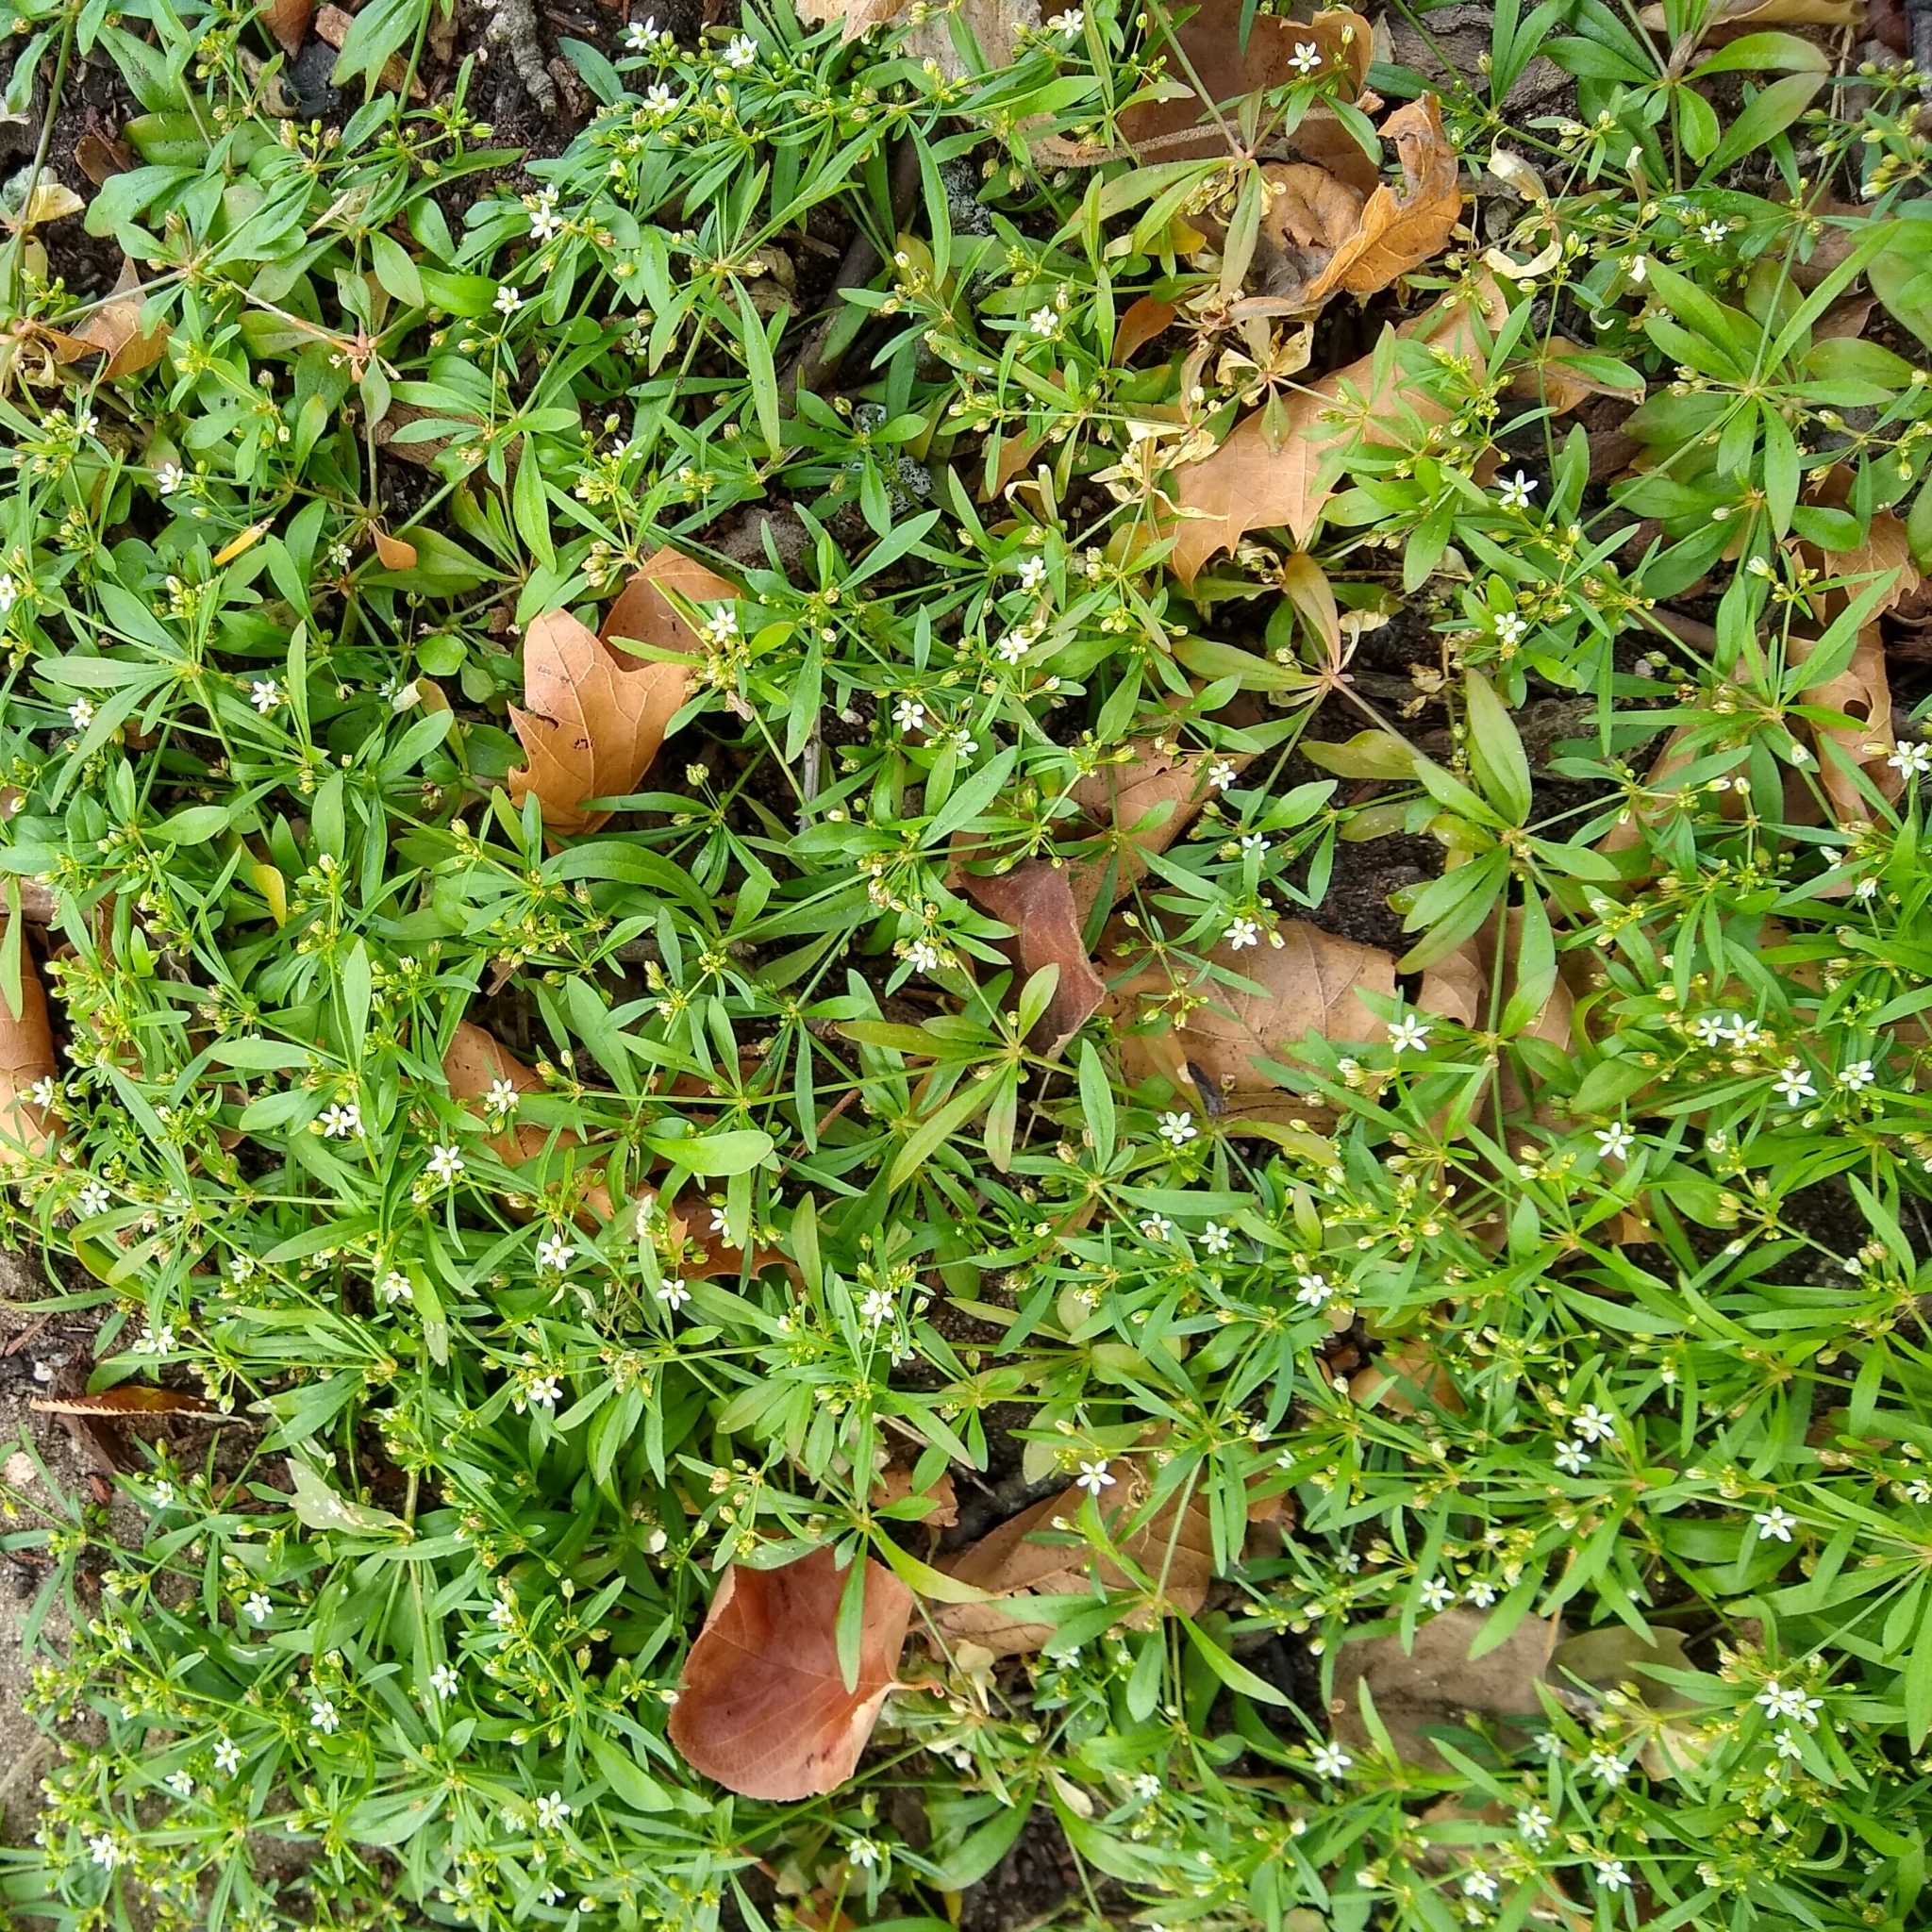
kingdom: Plantae
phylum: Tracheophyta
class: Magnoliopsida
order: Caryophyllales
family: Molluginaceae
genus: Mollugo
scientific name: Mollugo verticillata
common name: Green carpetweed
